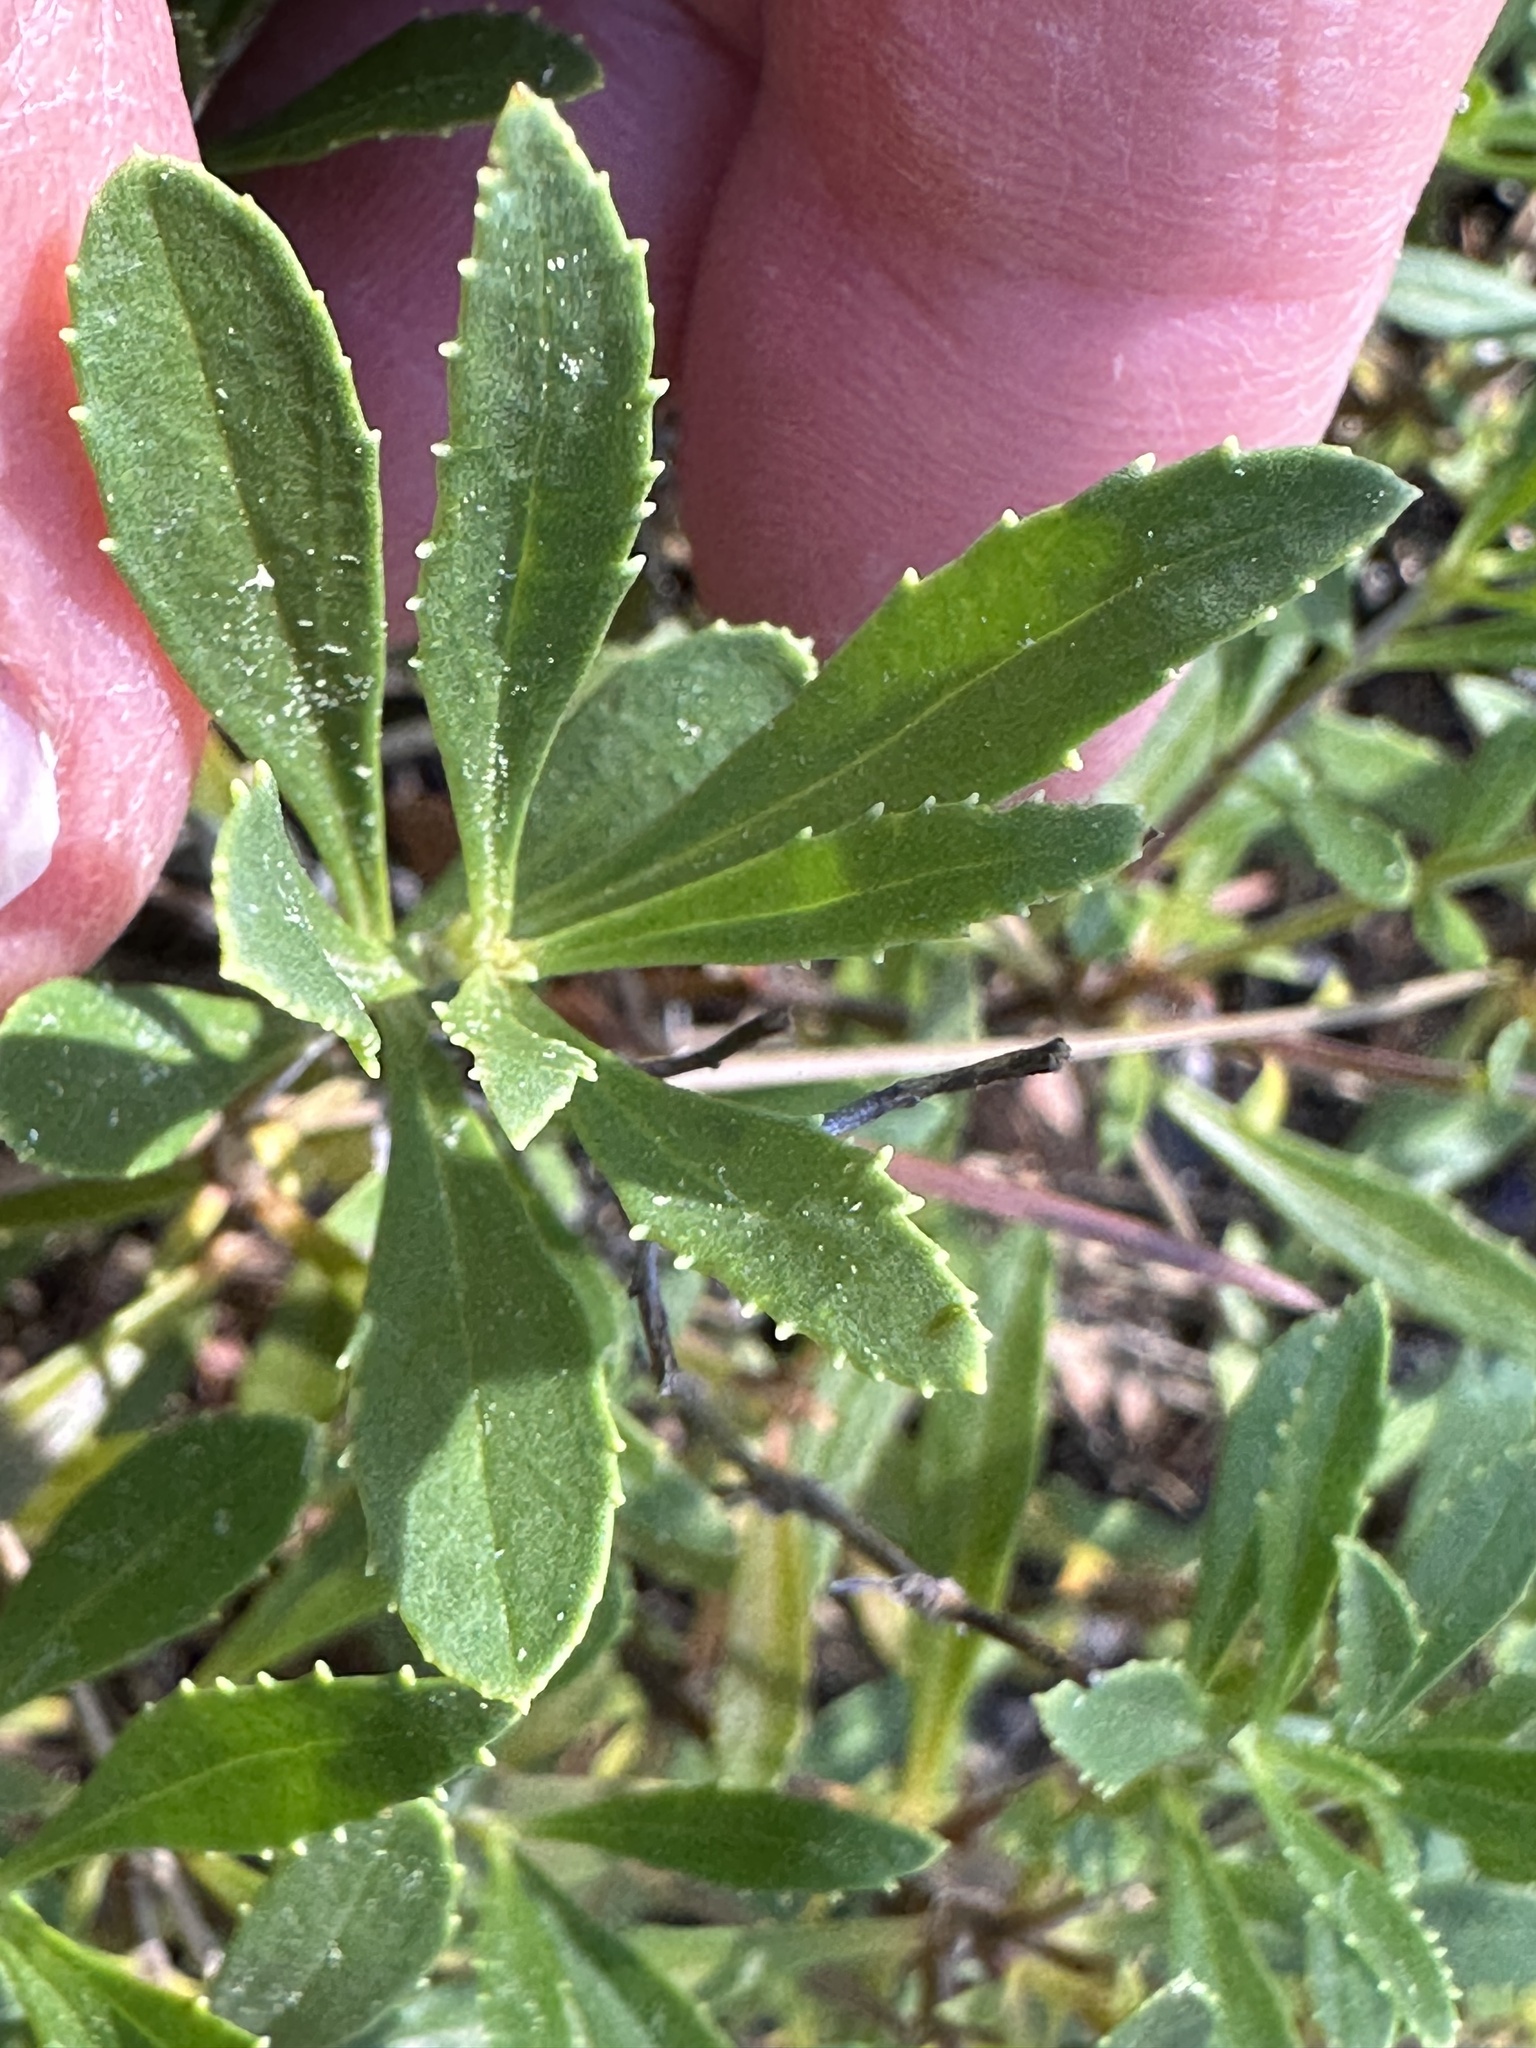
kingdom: Plantae
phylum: Tracheophyta
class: Magnoliopsida
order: Lamiales
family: Plantaginaceae
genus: Penstemon
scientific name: Penstemon fruticosus
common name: Bush penstemon
